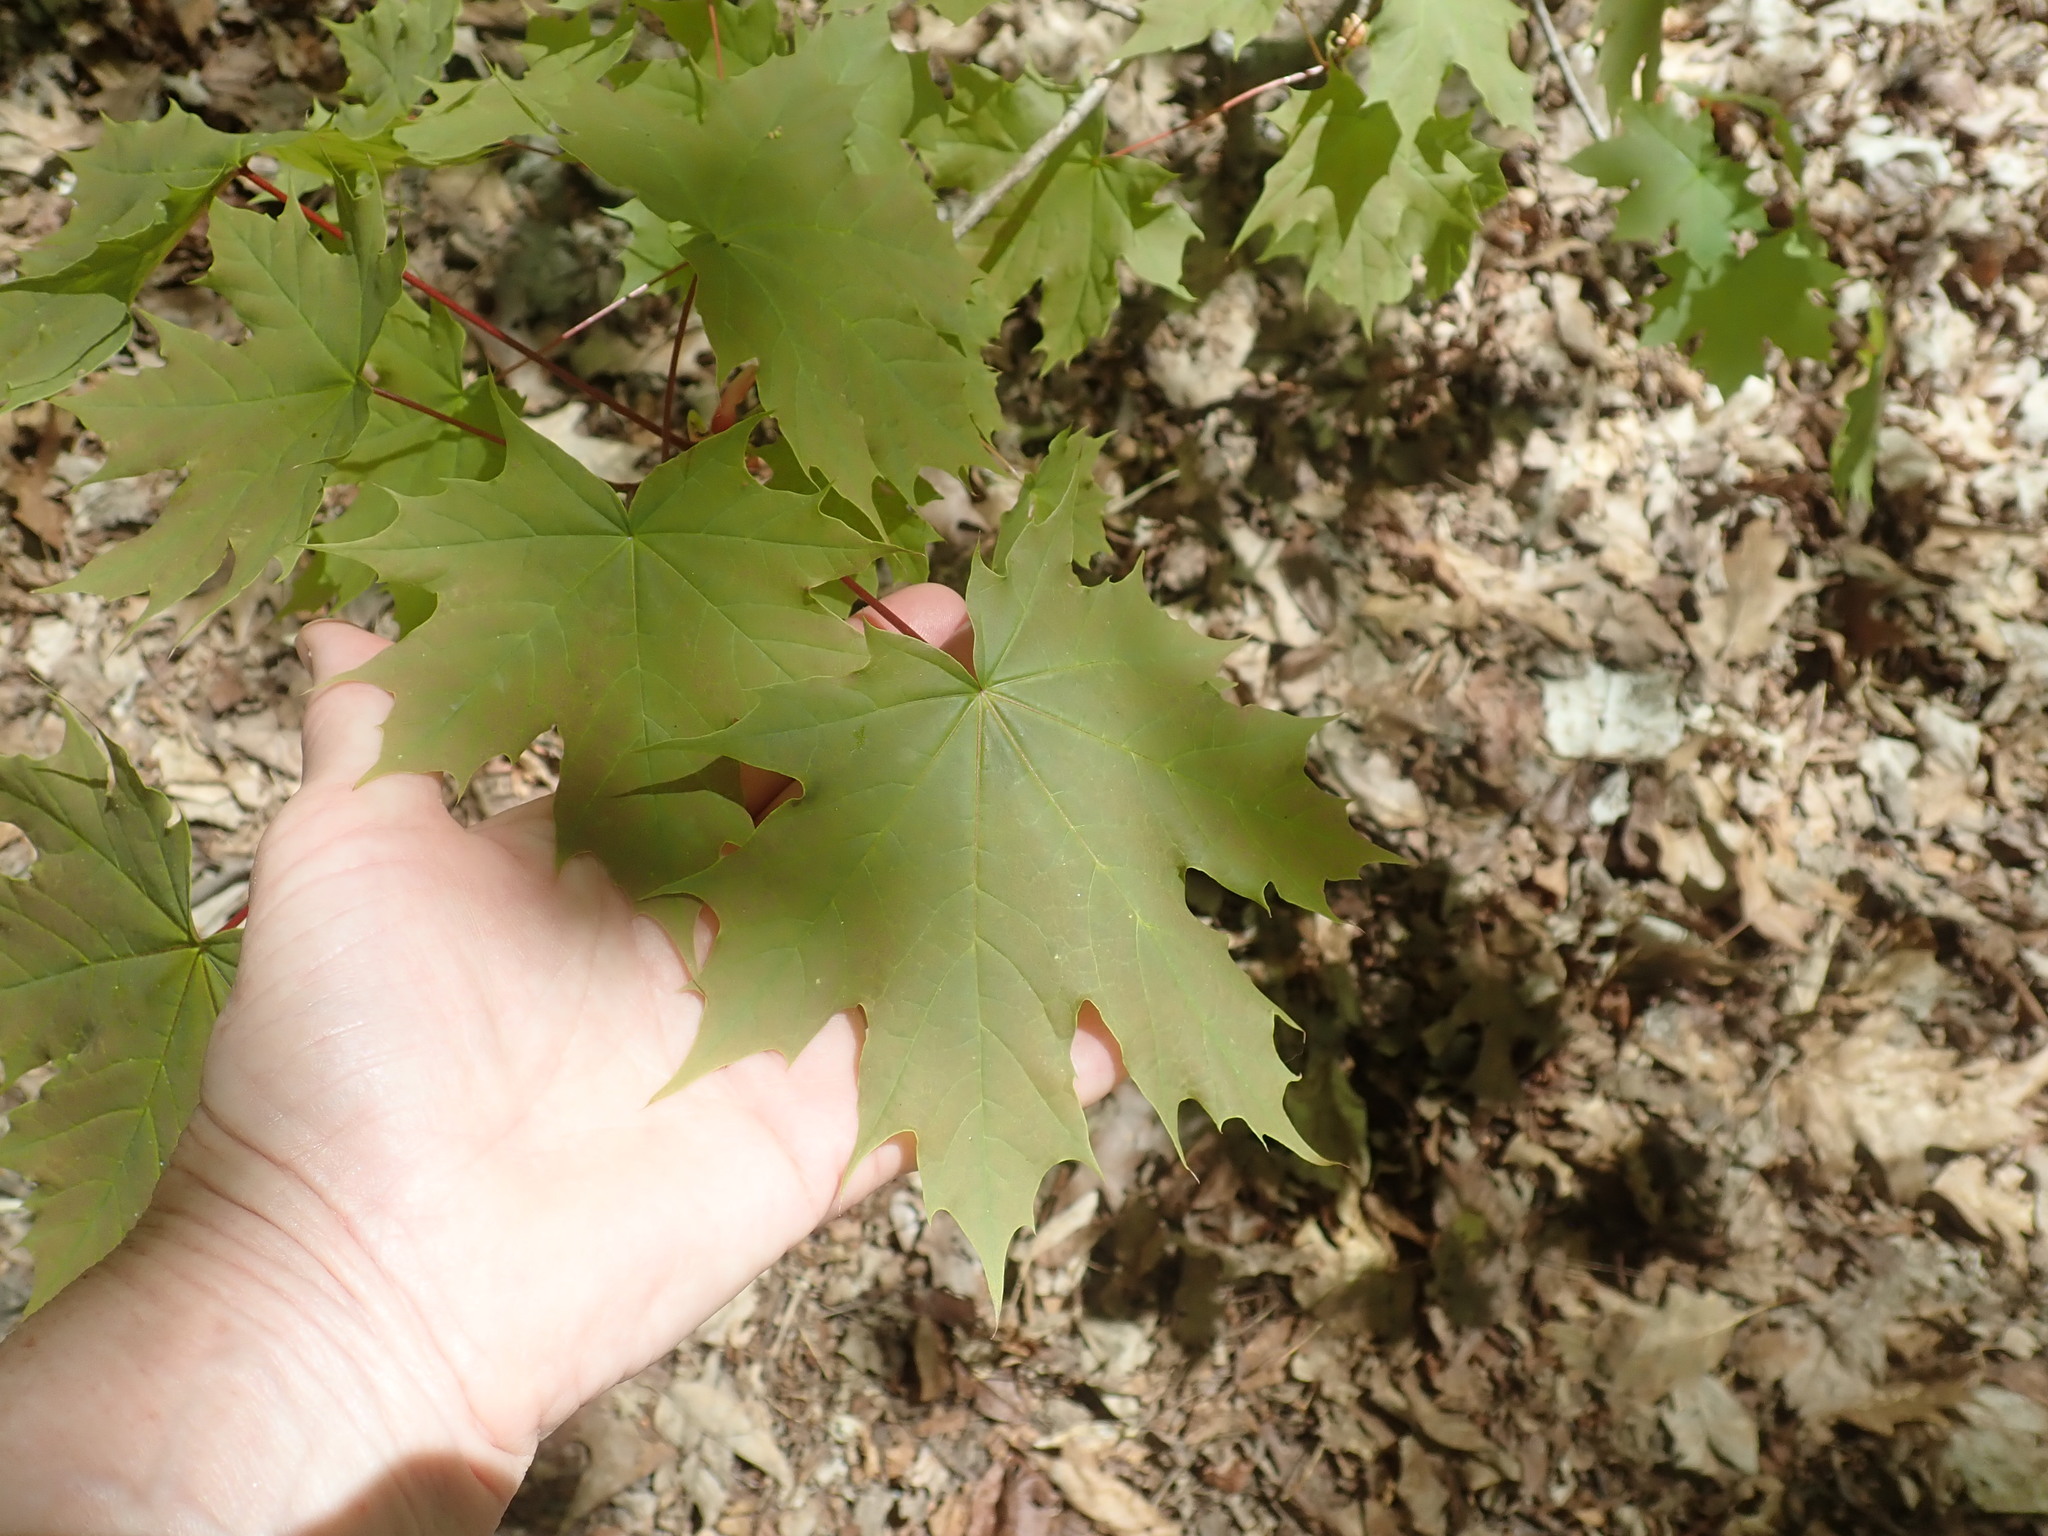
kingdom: Plantae
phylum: Tracheophyta
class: Magnoliopsida
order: Sapindales
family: Sapindaceae
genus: Acer
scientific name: Acer platanoides
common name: Norway maple
